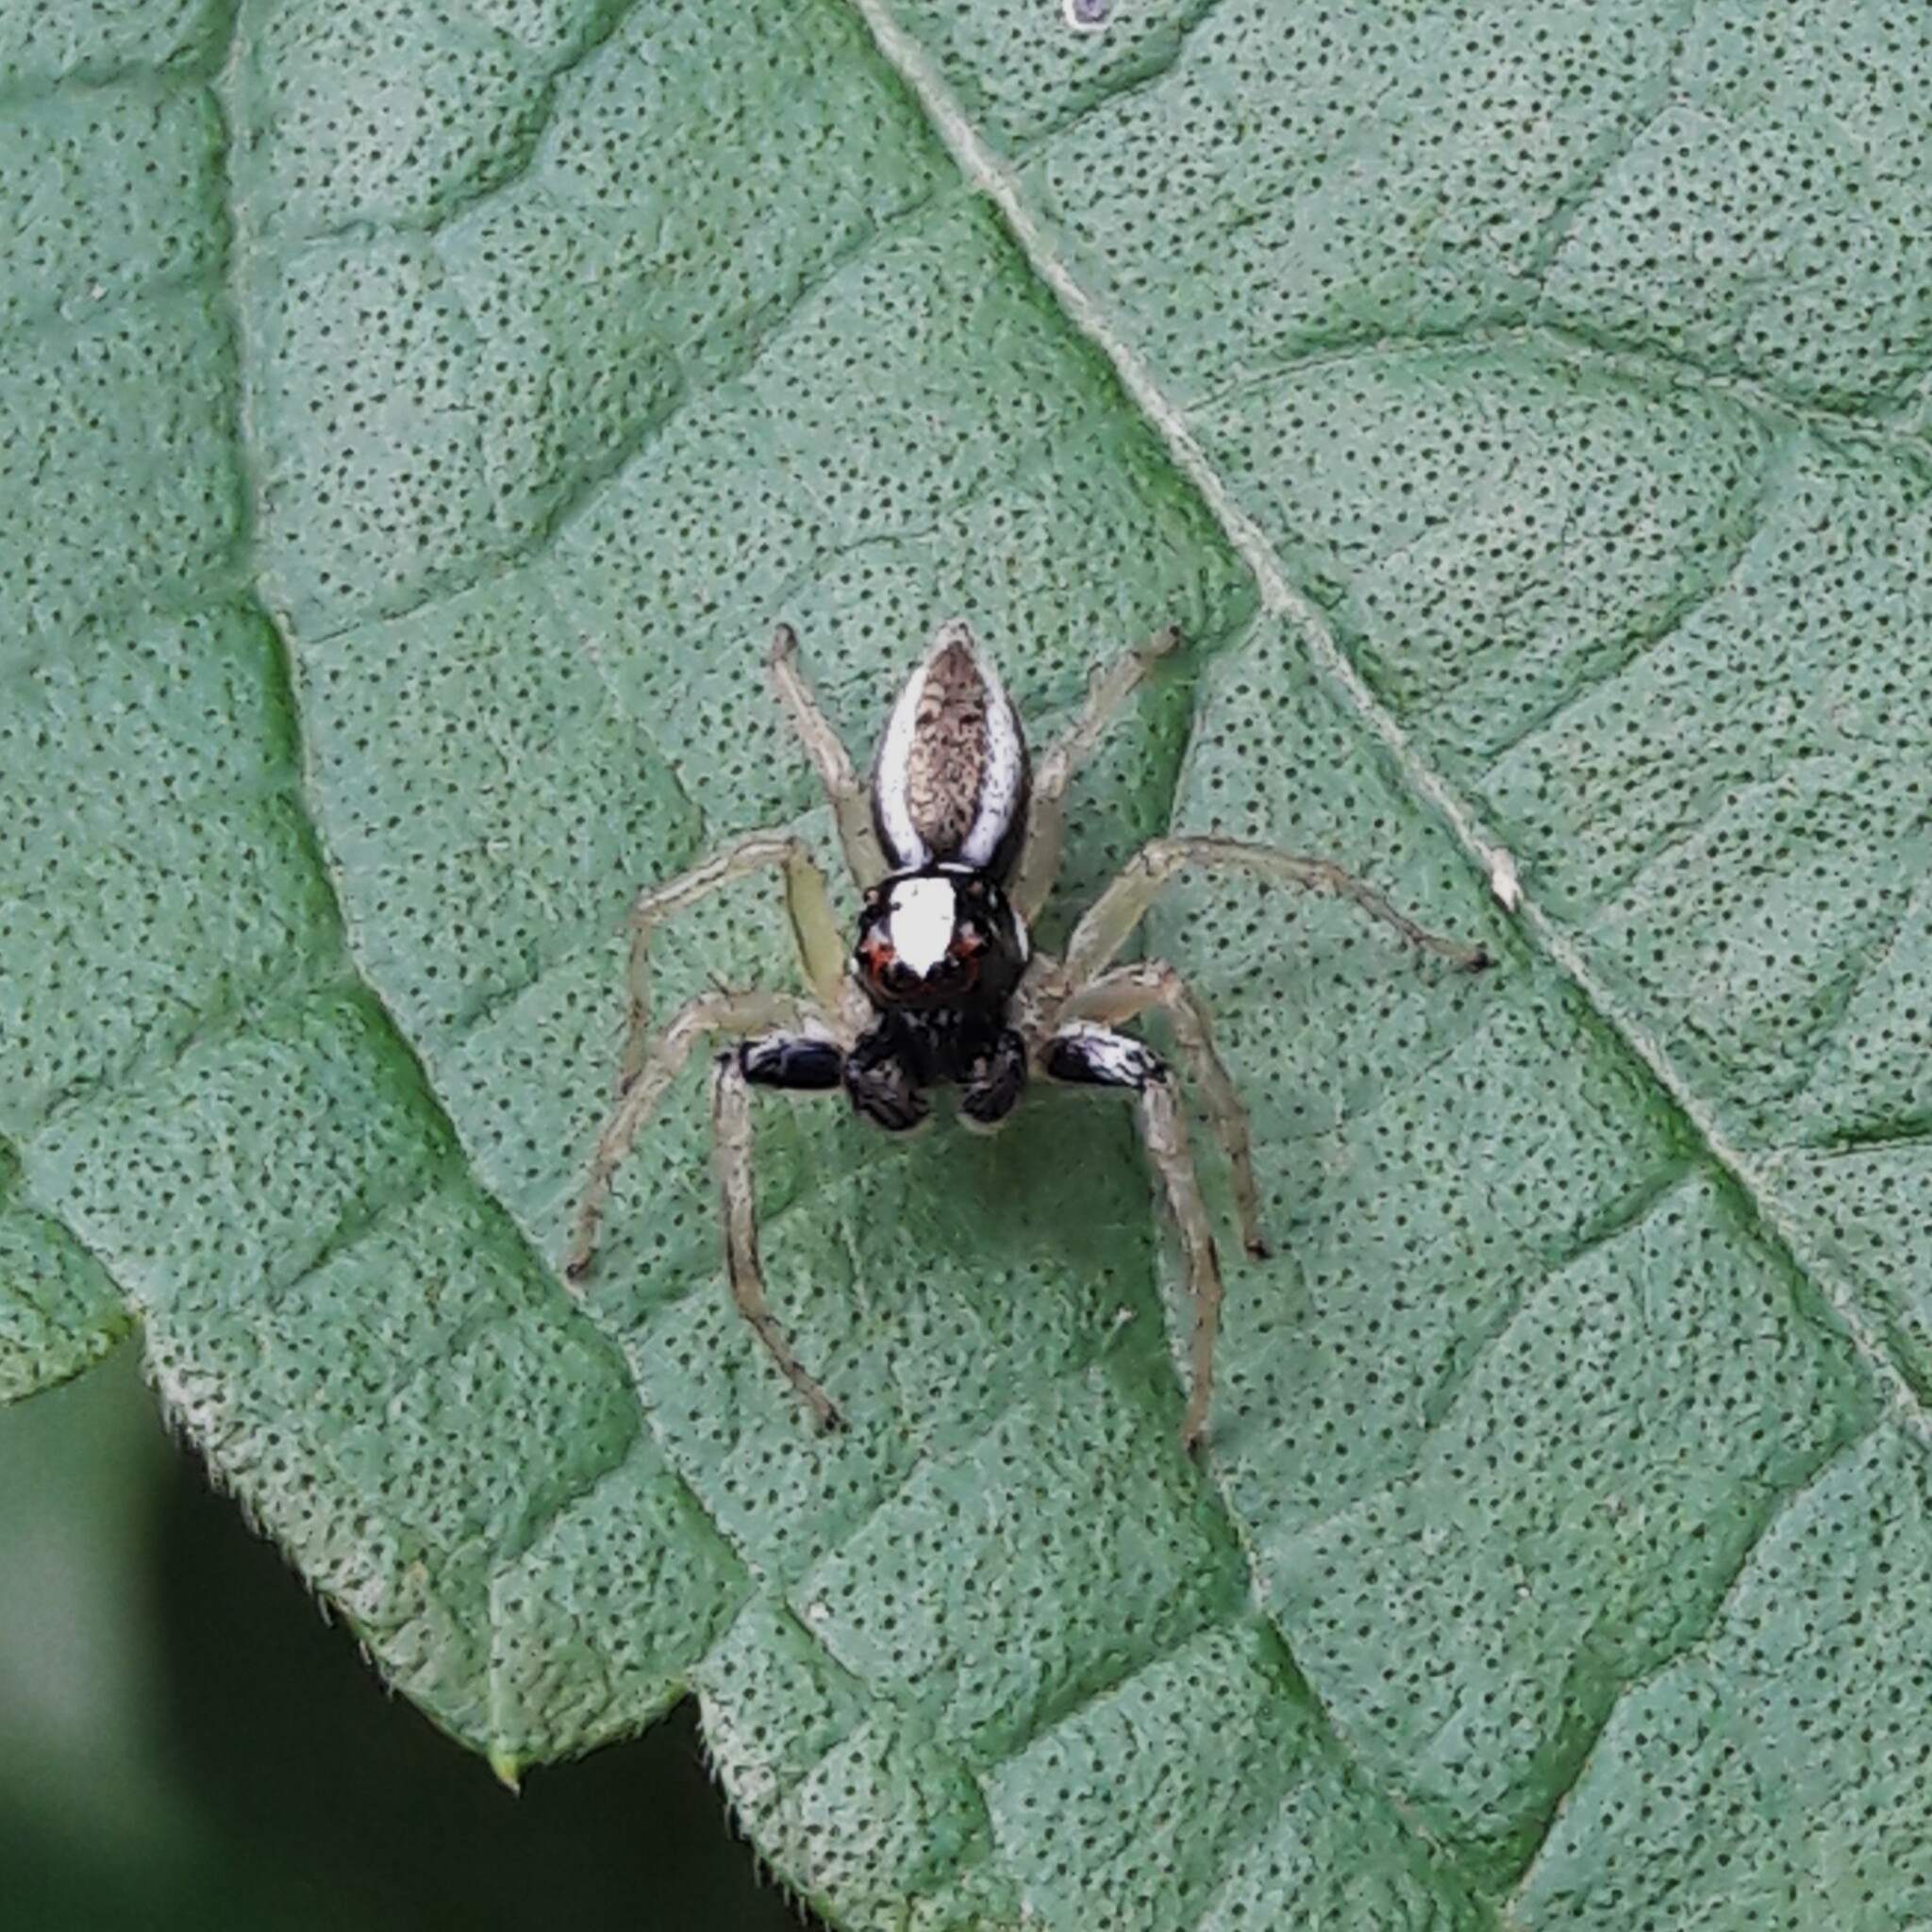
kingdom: Animalia
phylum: Arthropoda
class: Arachnida
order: Araneae
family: Salticidae
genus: Chira
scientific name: Chira spinosa
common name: Jumping spiders
